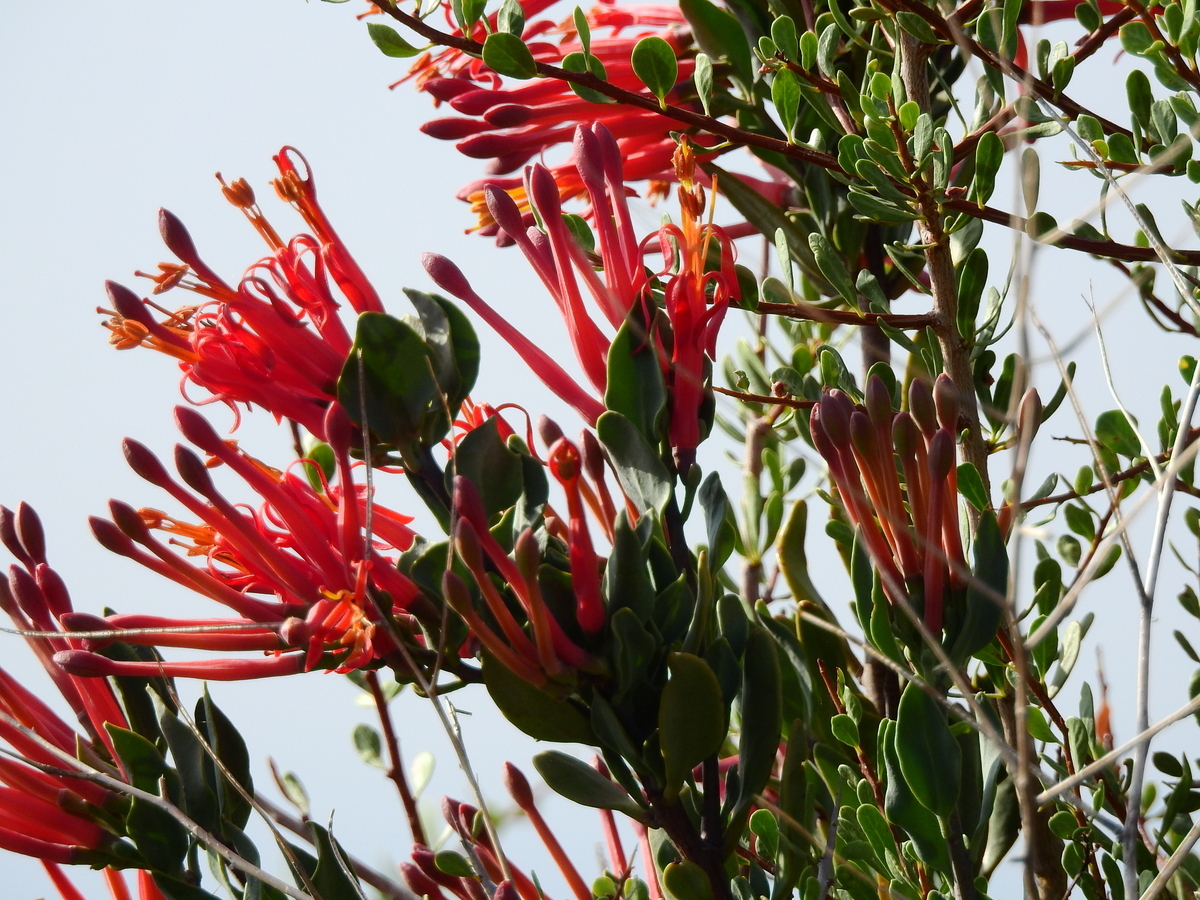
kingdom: Plantae
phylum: Tracheophyta
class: Magnoliopsida
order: Santalales
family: Loranthaceae
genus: Tristerix
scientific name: Tristerix verticillatus
